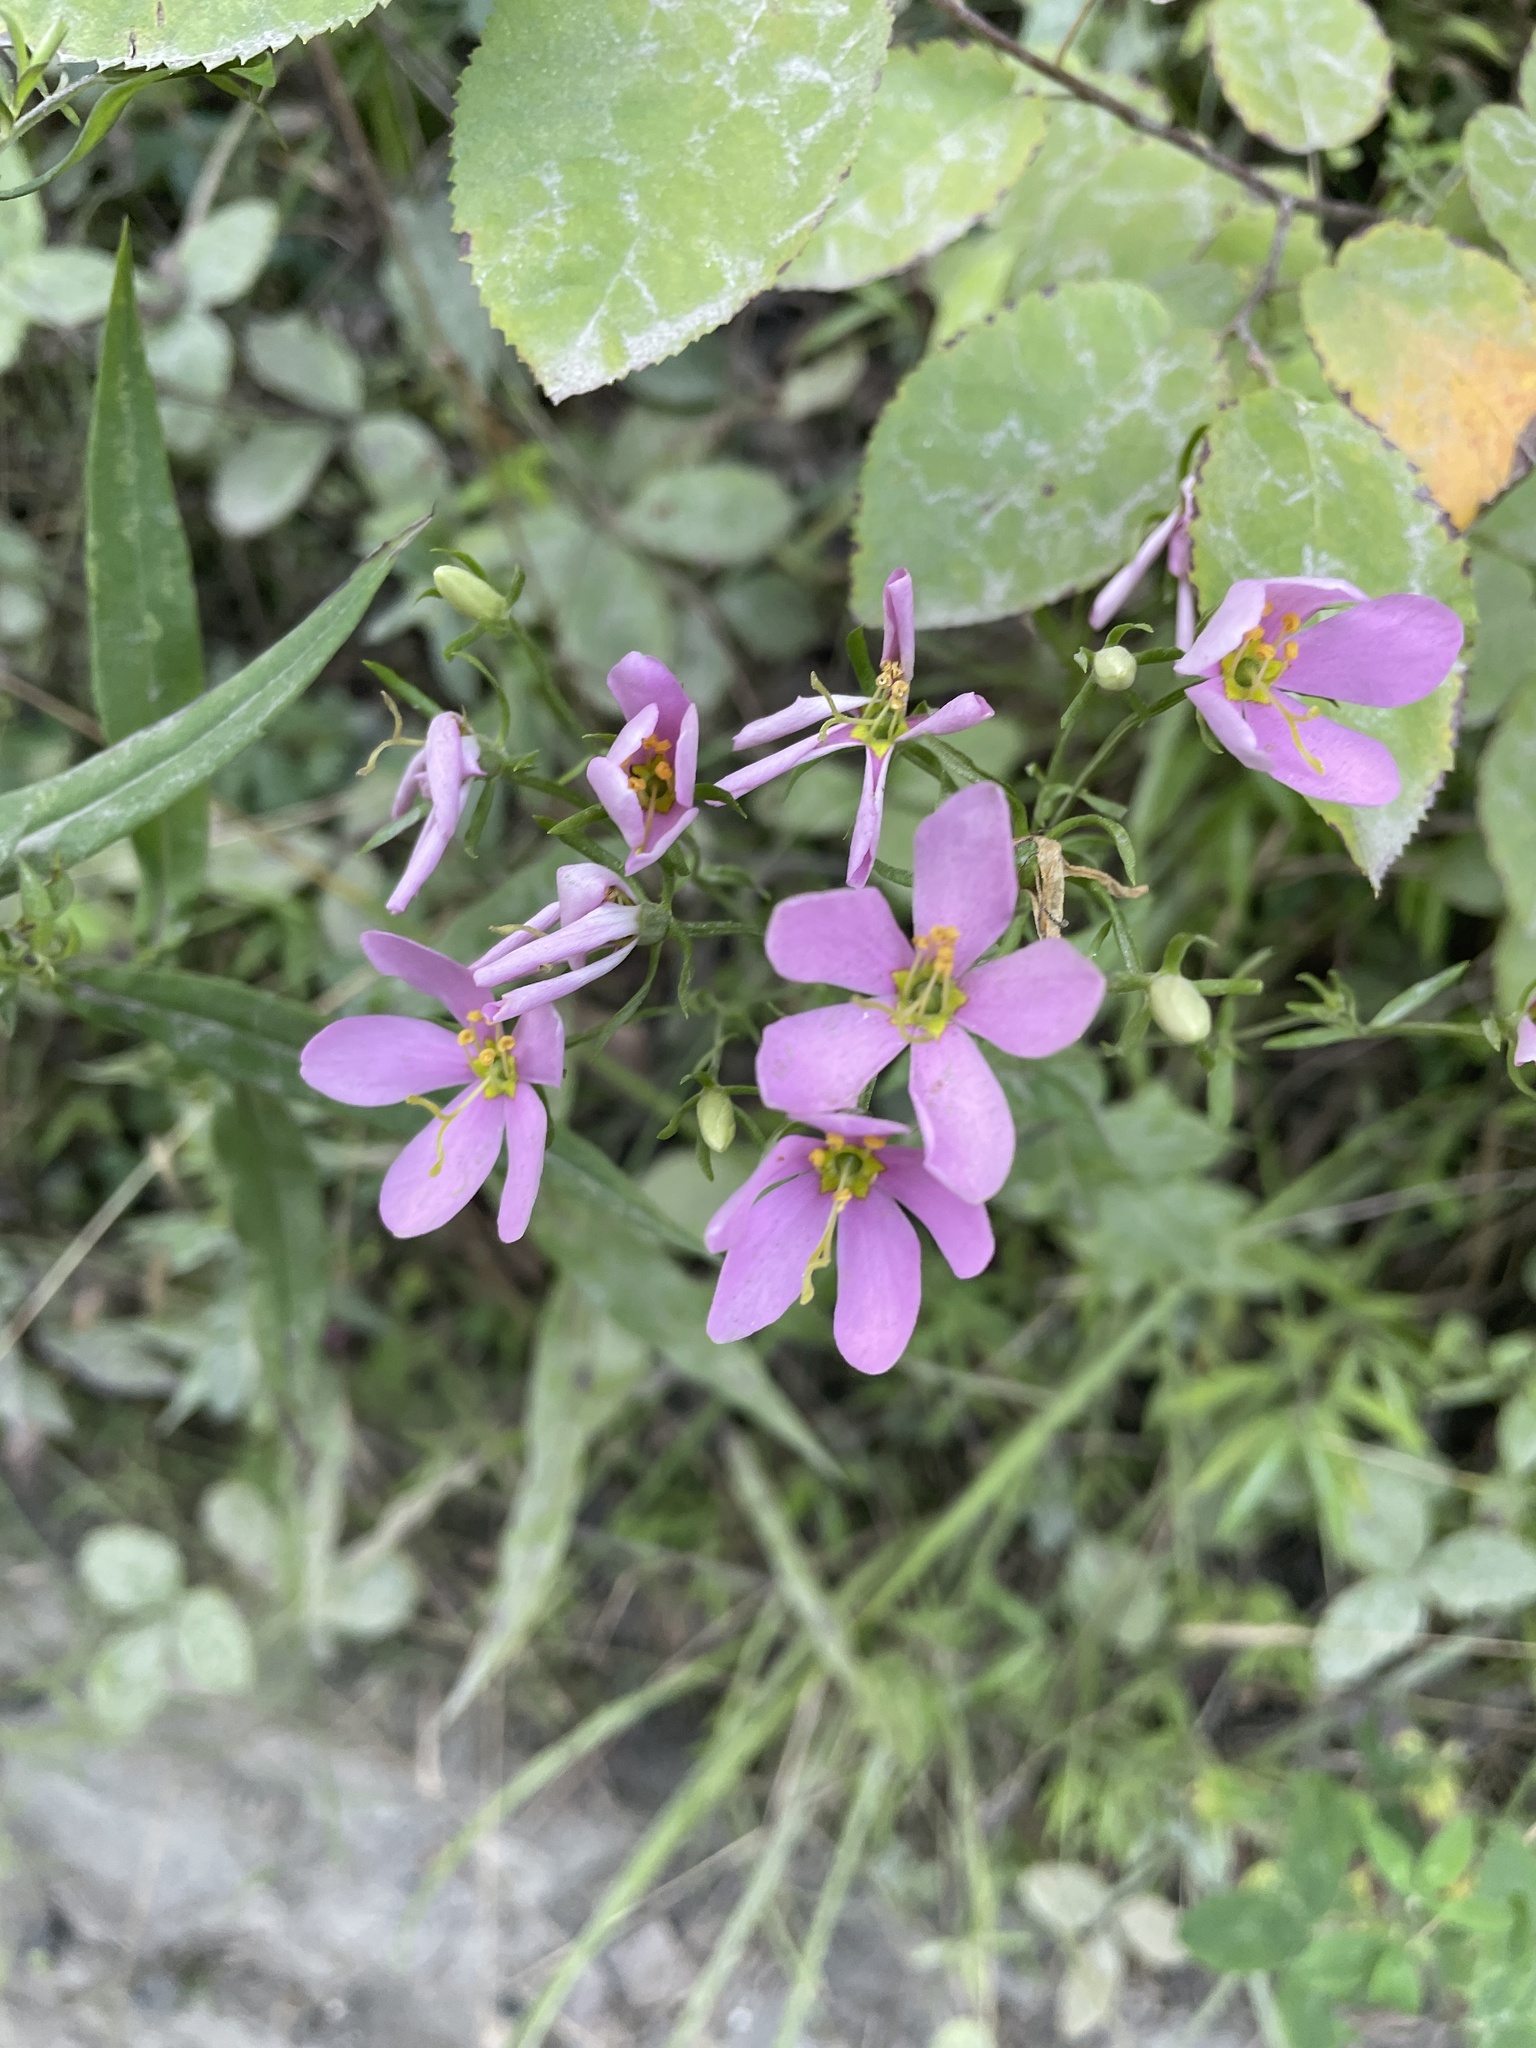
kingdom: Plantae
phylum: Tracheophyta
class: Magnoliopsida
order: Gentianales
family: Gentianaceae
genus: Sabatia
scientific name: Sabatia angularis
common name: Rose-pink
